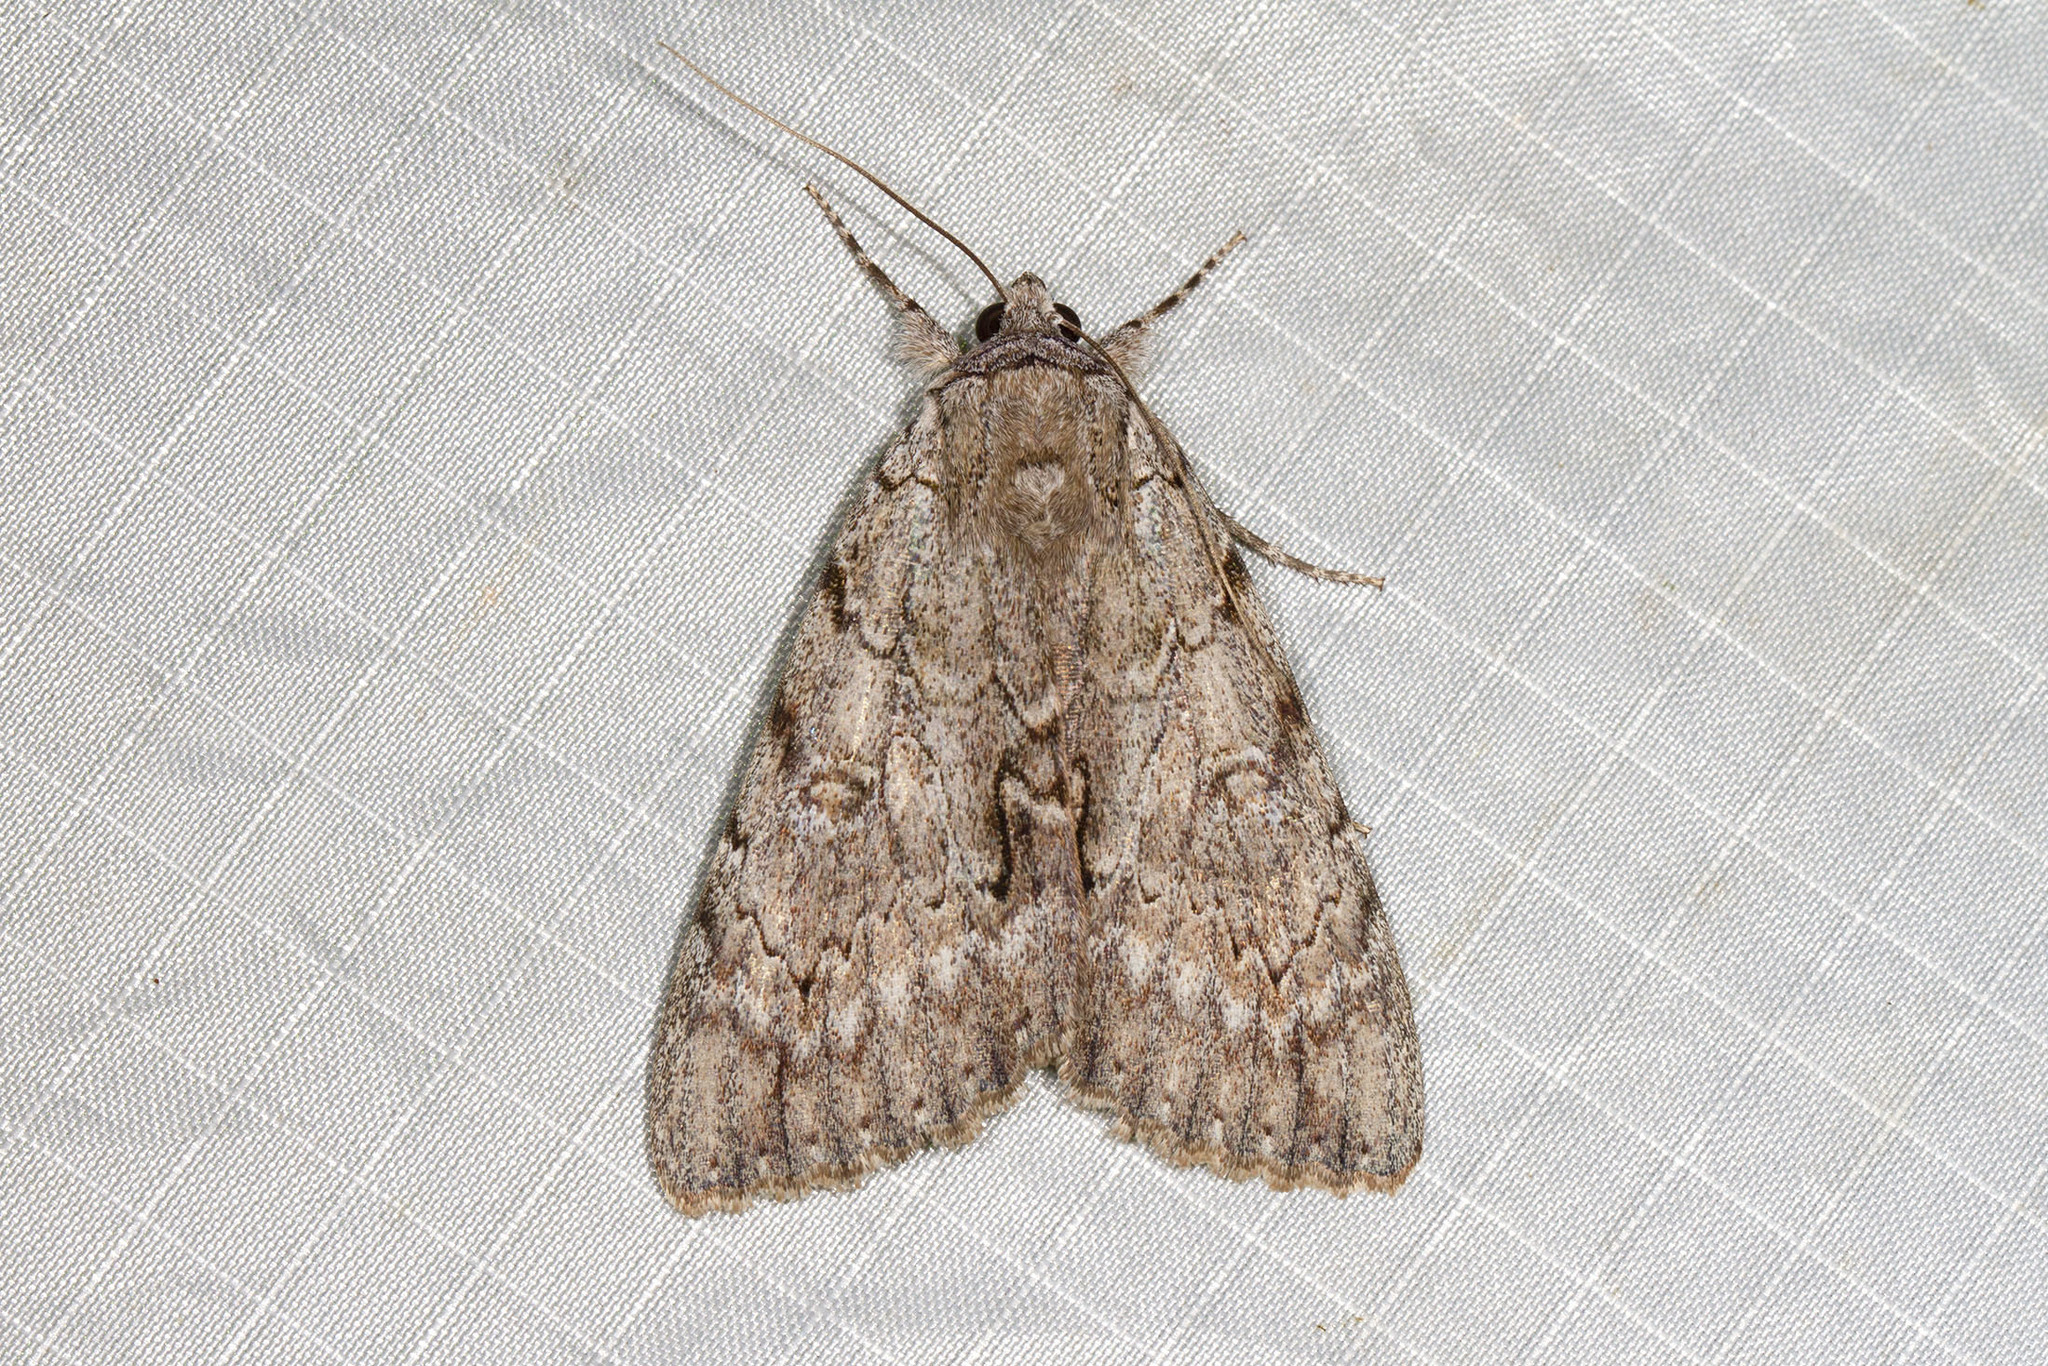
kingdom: Animalia
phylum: Arthropoda
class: Insecta
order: Lepidoptera
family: Erebidae
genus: Catocala
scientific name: Catocala habilis
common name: Habilis underwing
